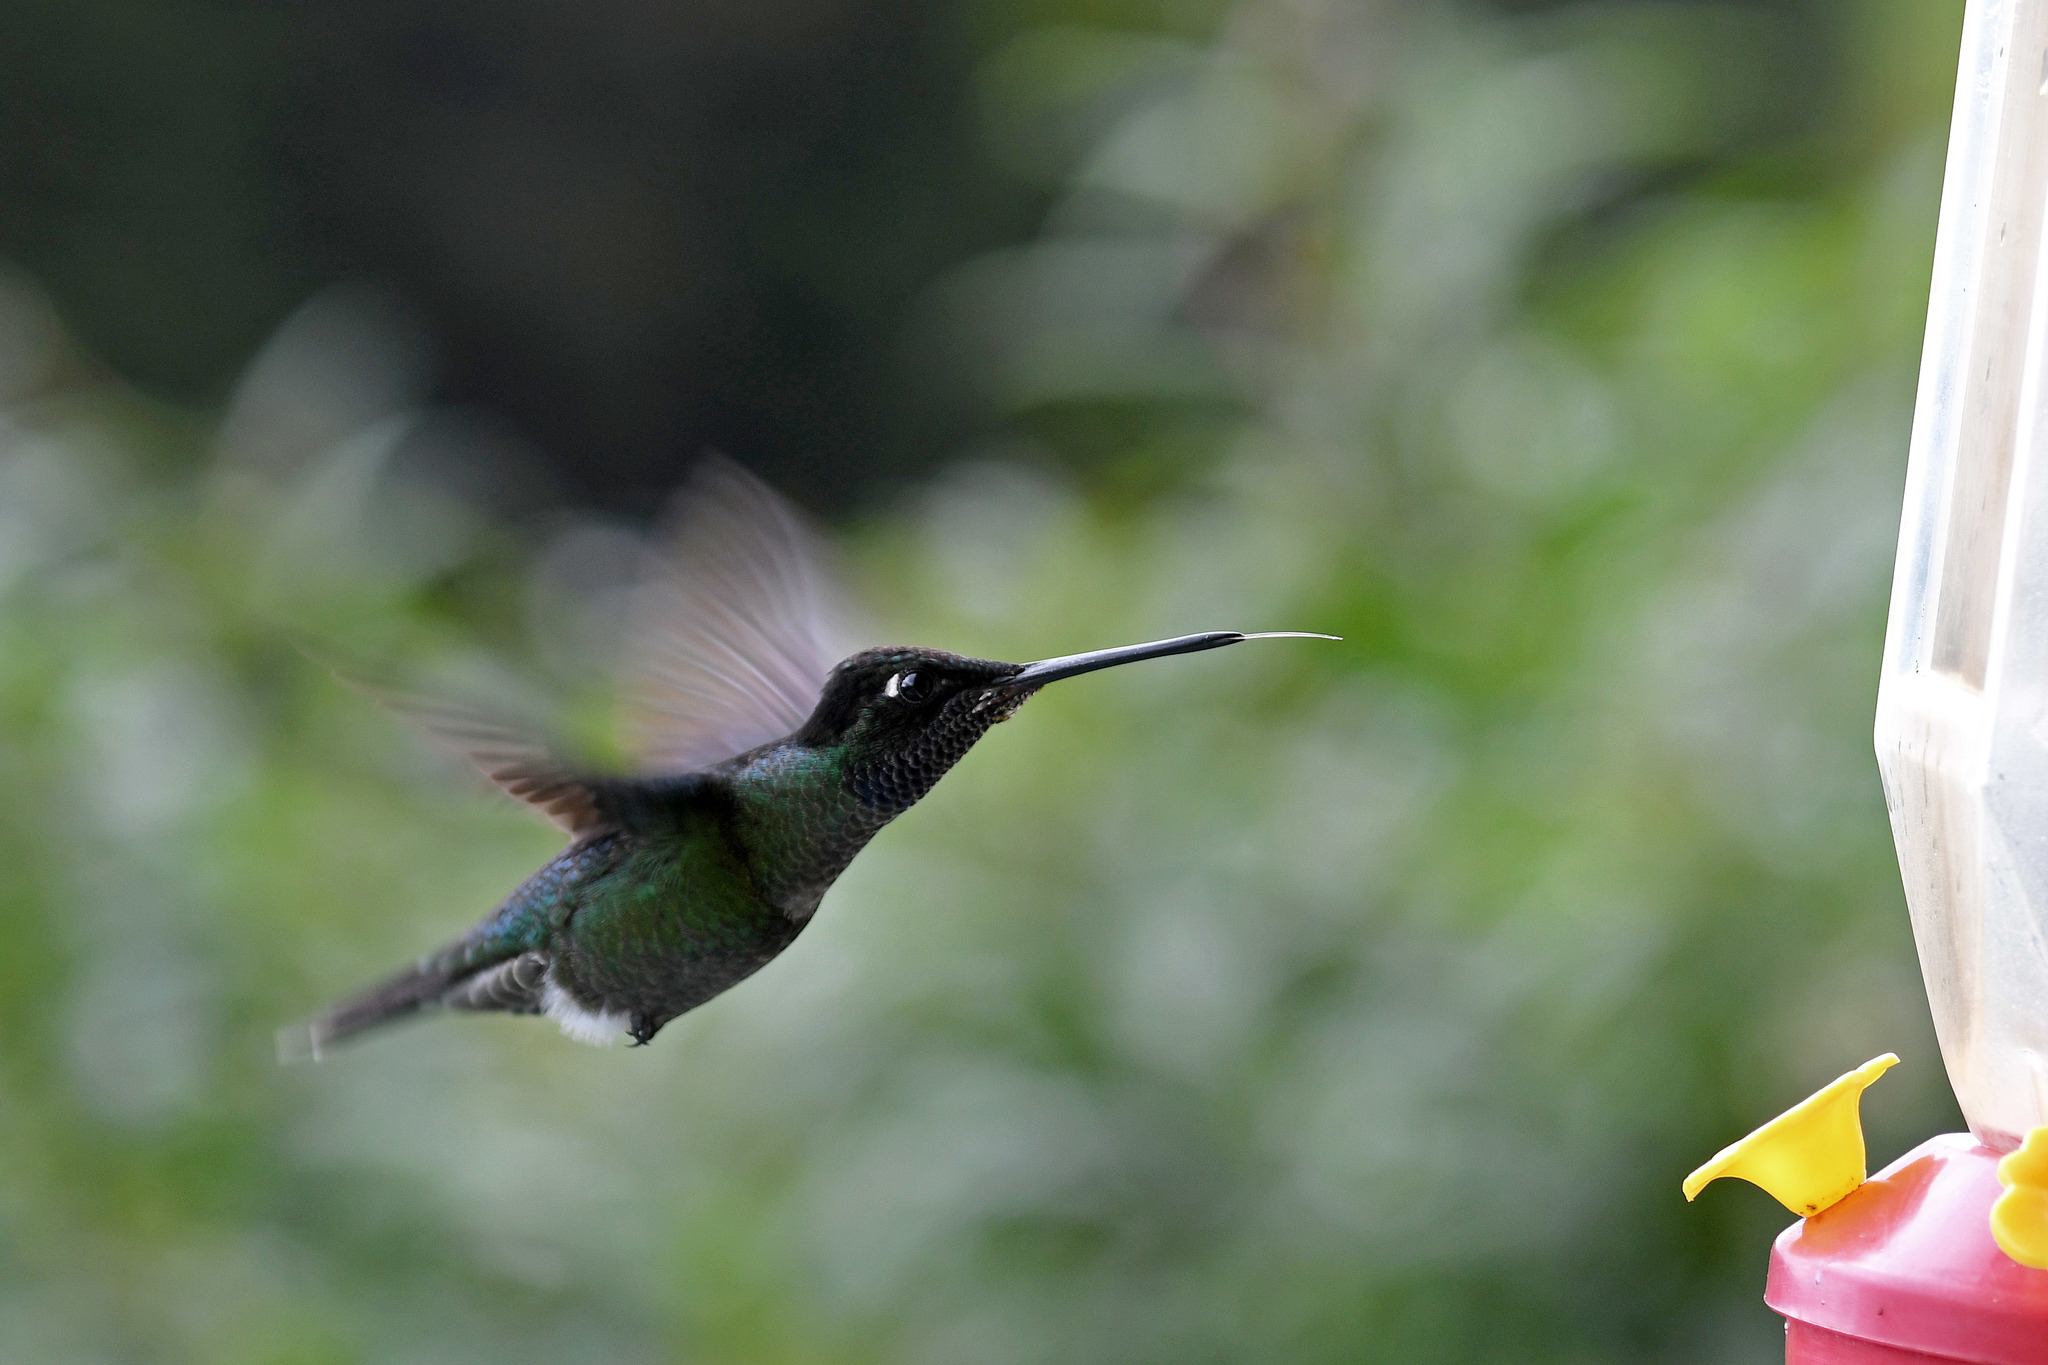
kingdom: Animalia
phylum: Chordata
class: Aves
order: Apodiformes
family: Trochilidae
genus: Eugenes
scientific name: Eugenes spectabilis
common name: Talamanca hummingbird
